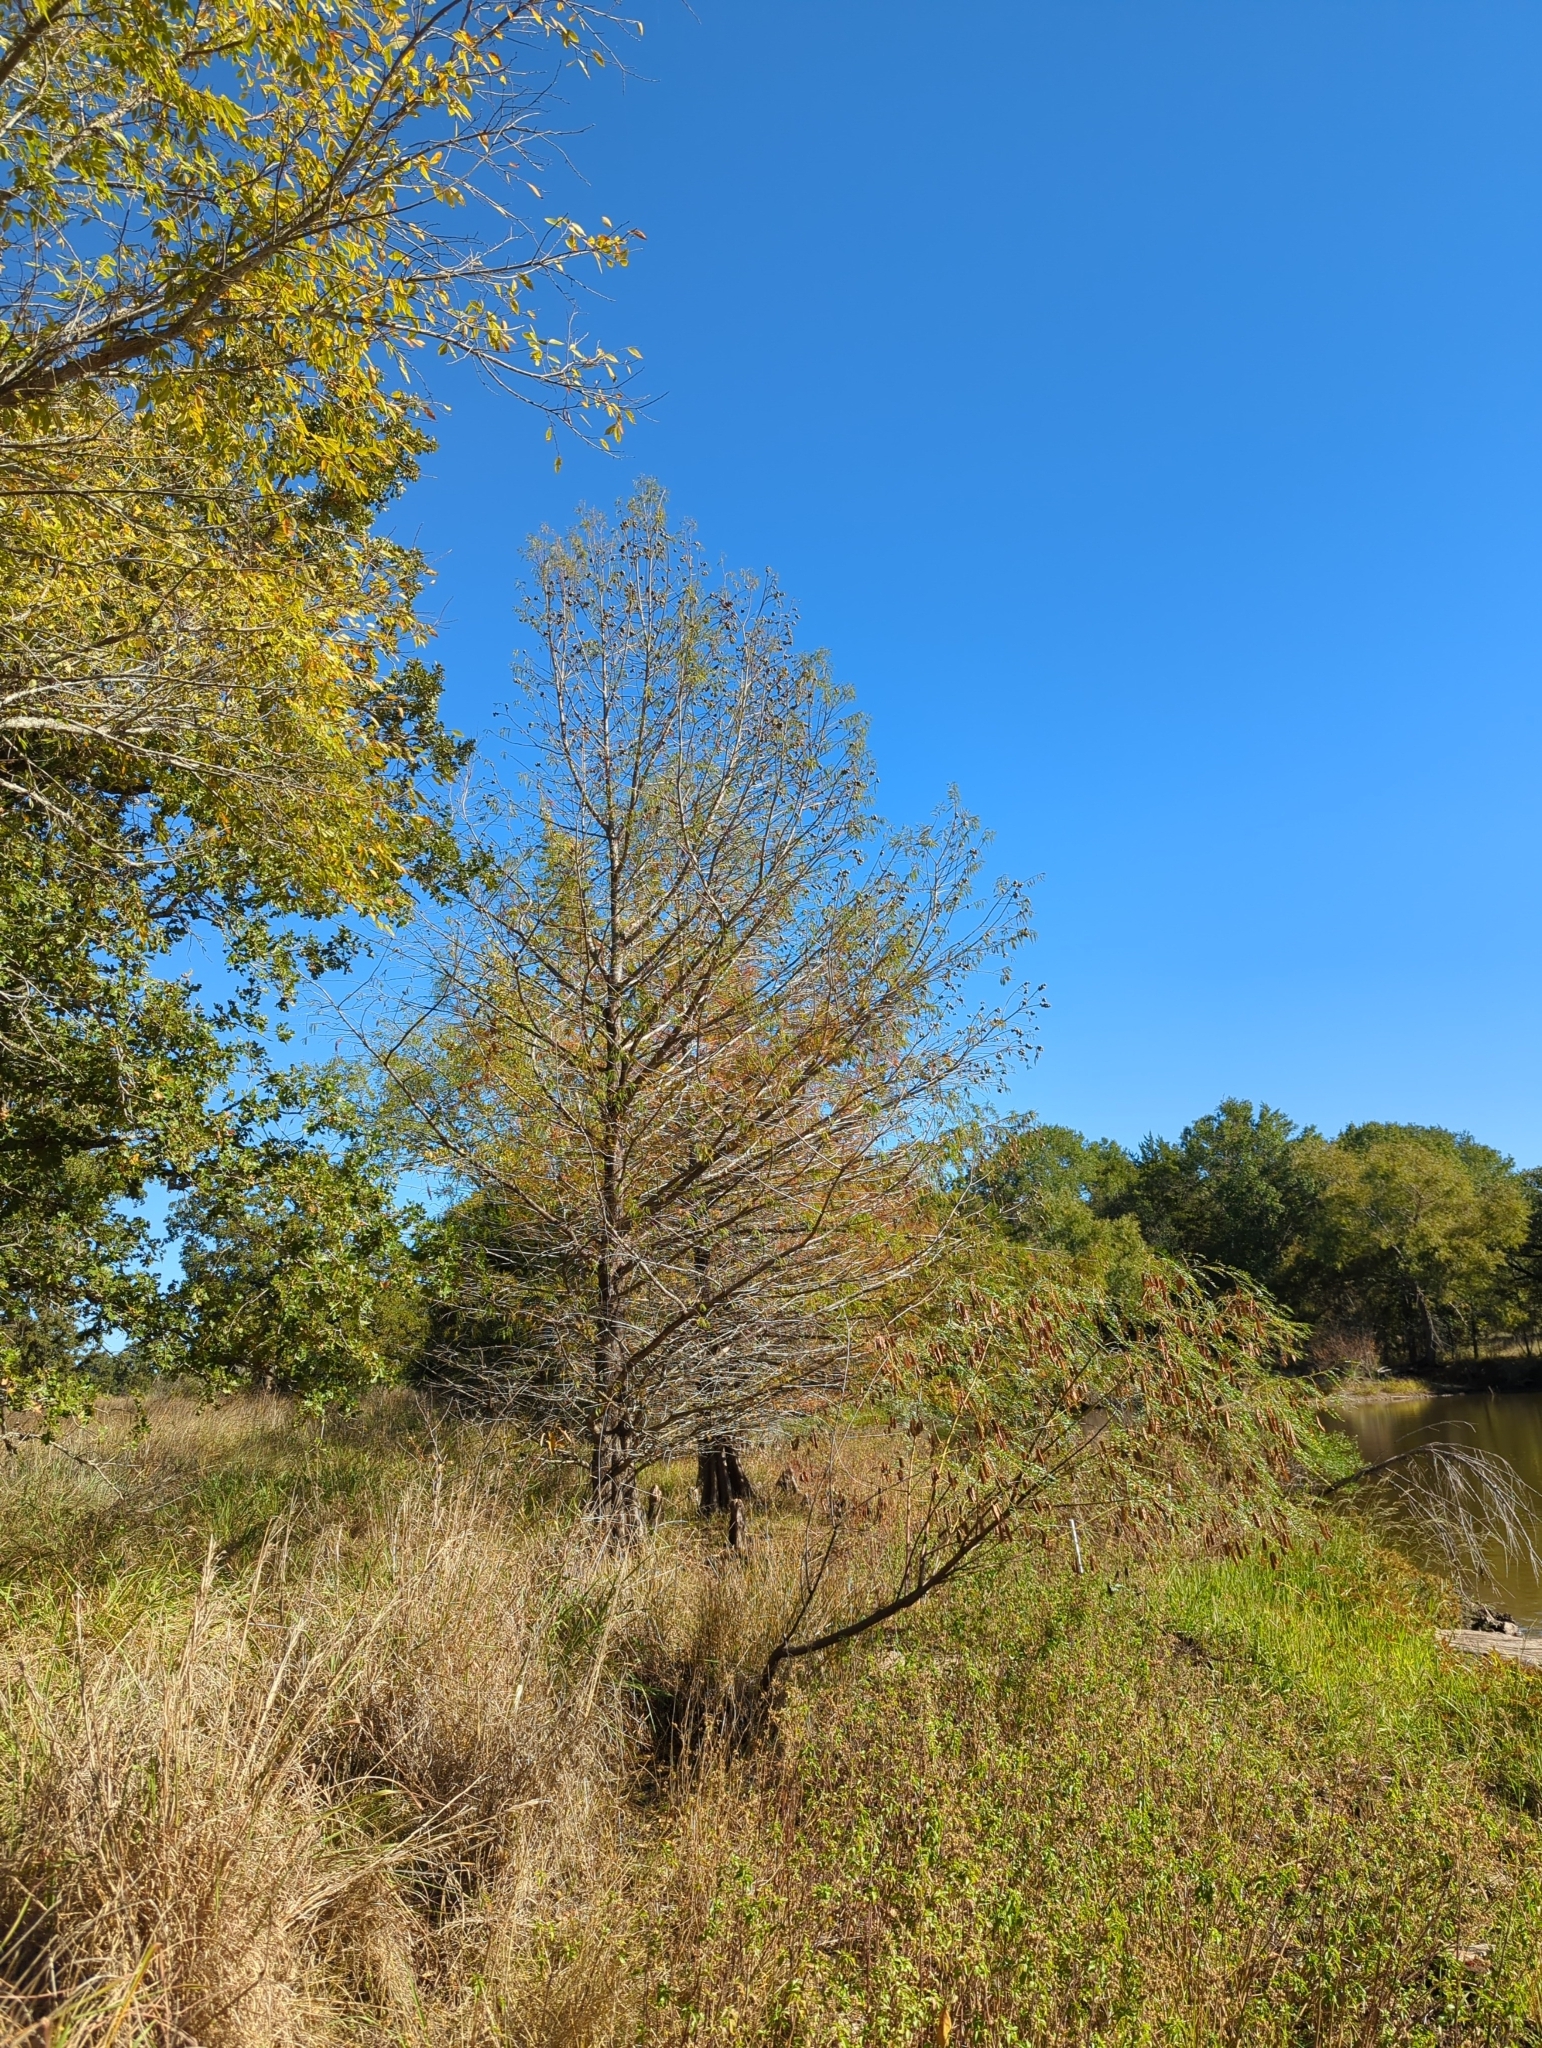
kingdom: Plantae
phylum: Tracheophyta
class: Pinopsida
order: Pinales
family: Cupressaceae
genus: Taxodium
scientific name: Taxodium distichum
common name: Bald cypress
